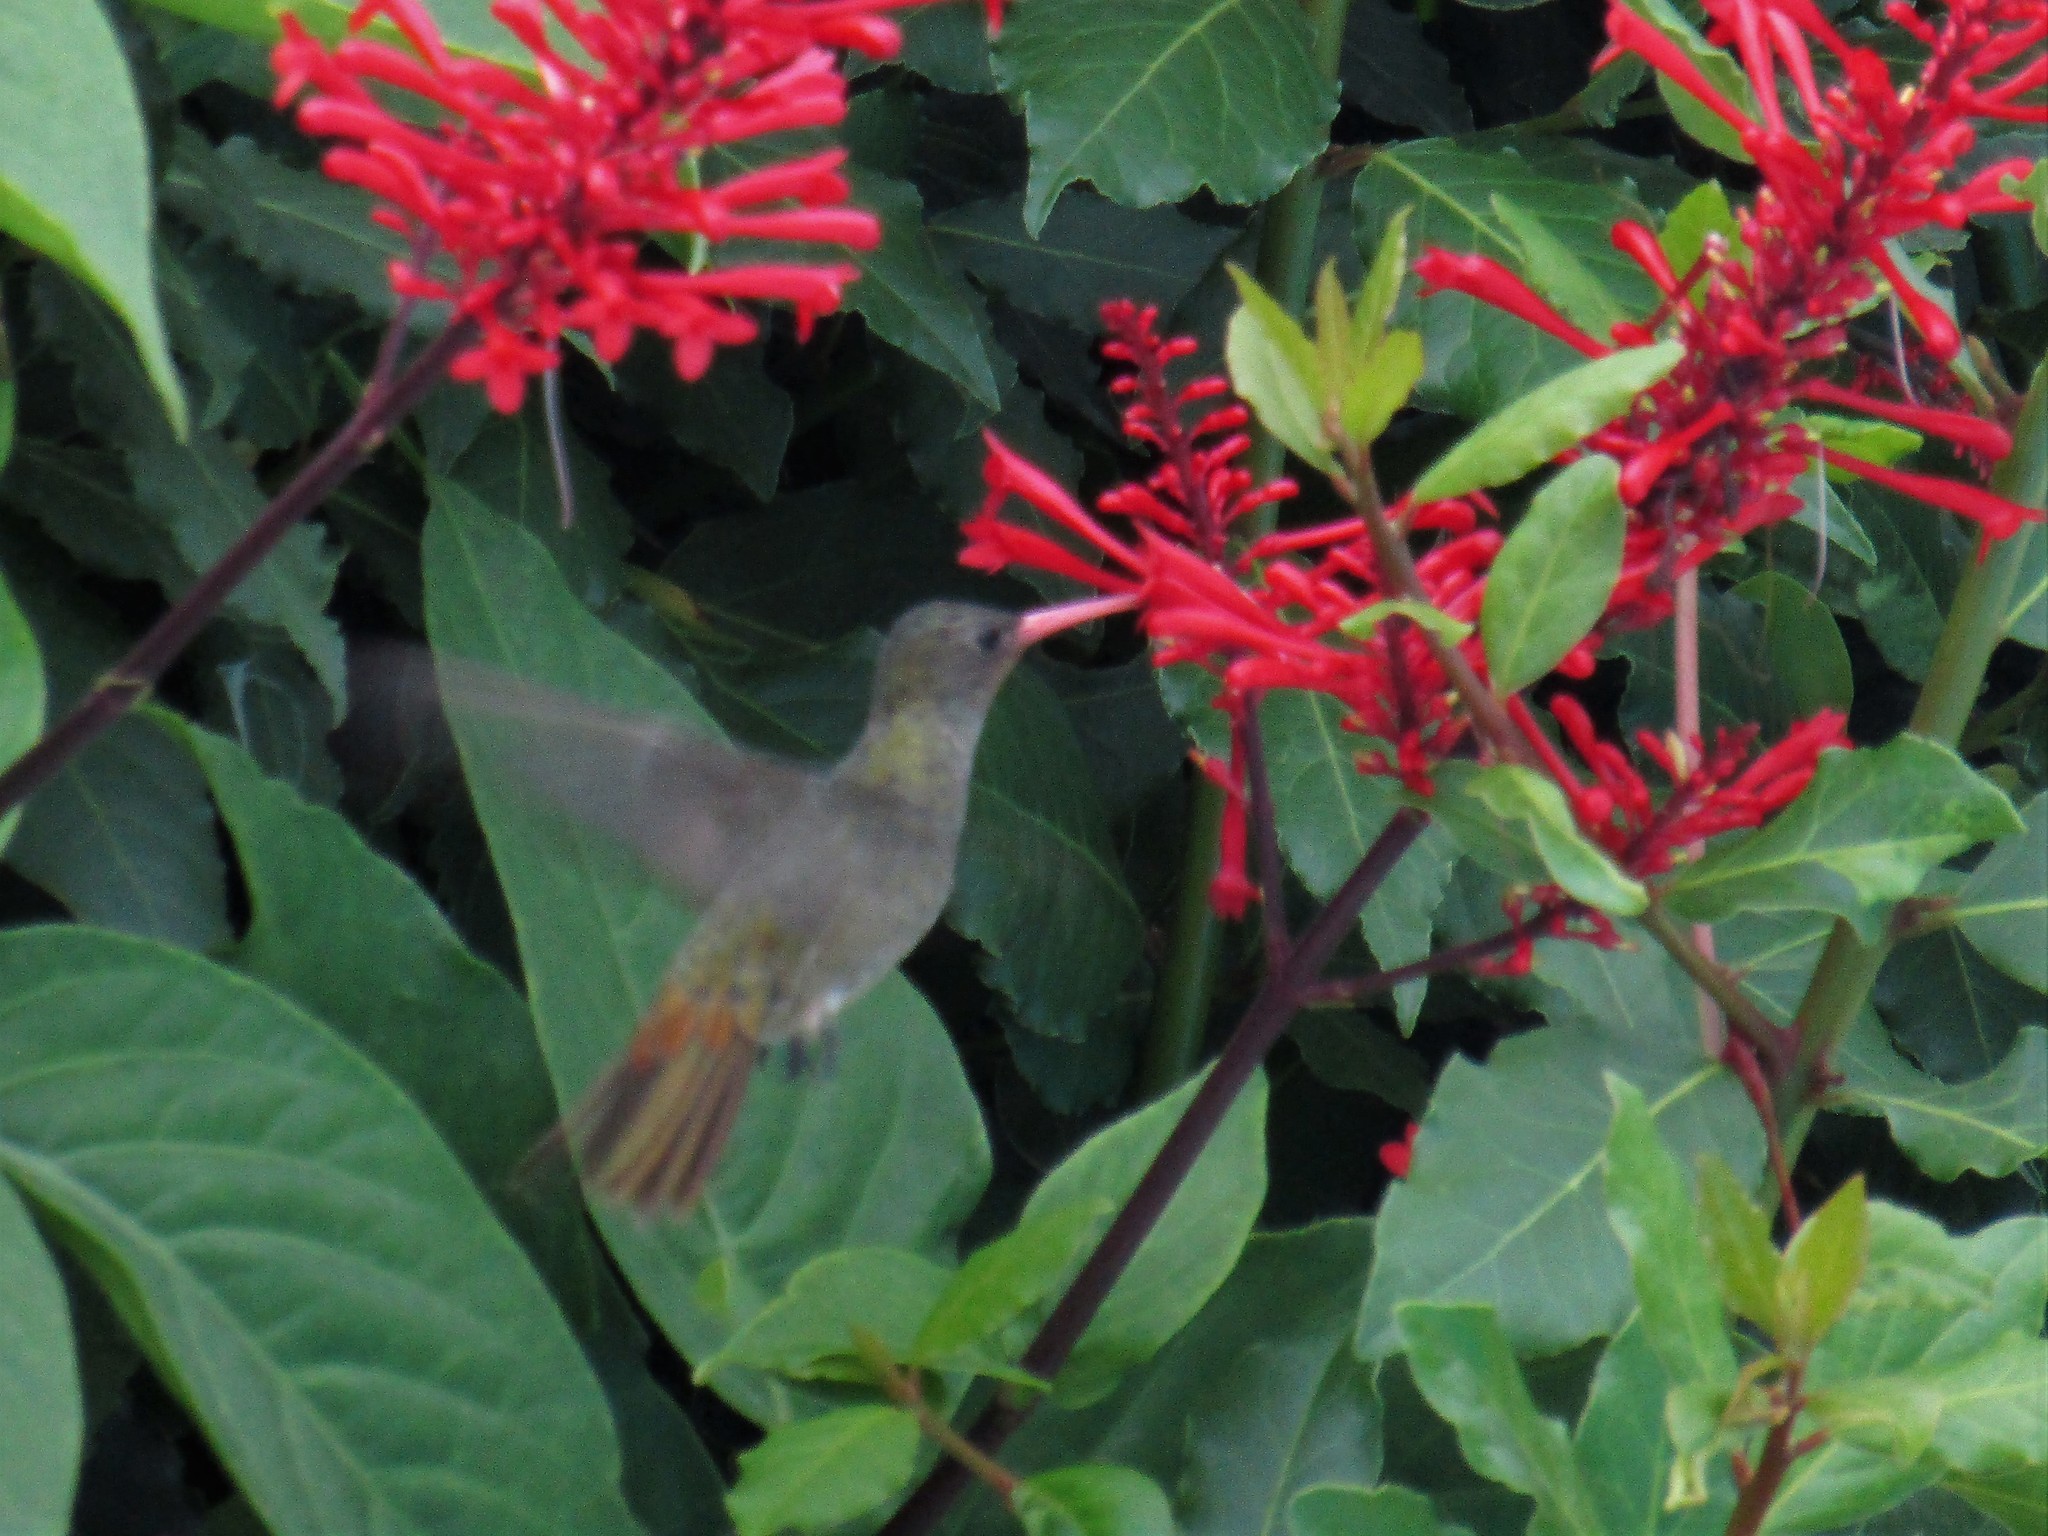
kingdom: Animalia
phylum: Chordata
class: Aves
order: Apodiformes
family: Trochilidae
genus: Hylocharis
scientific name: Hylocharis chrysura
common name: Gilded sapphire
